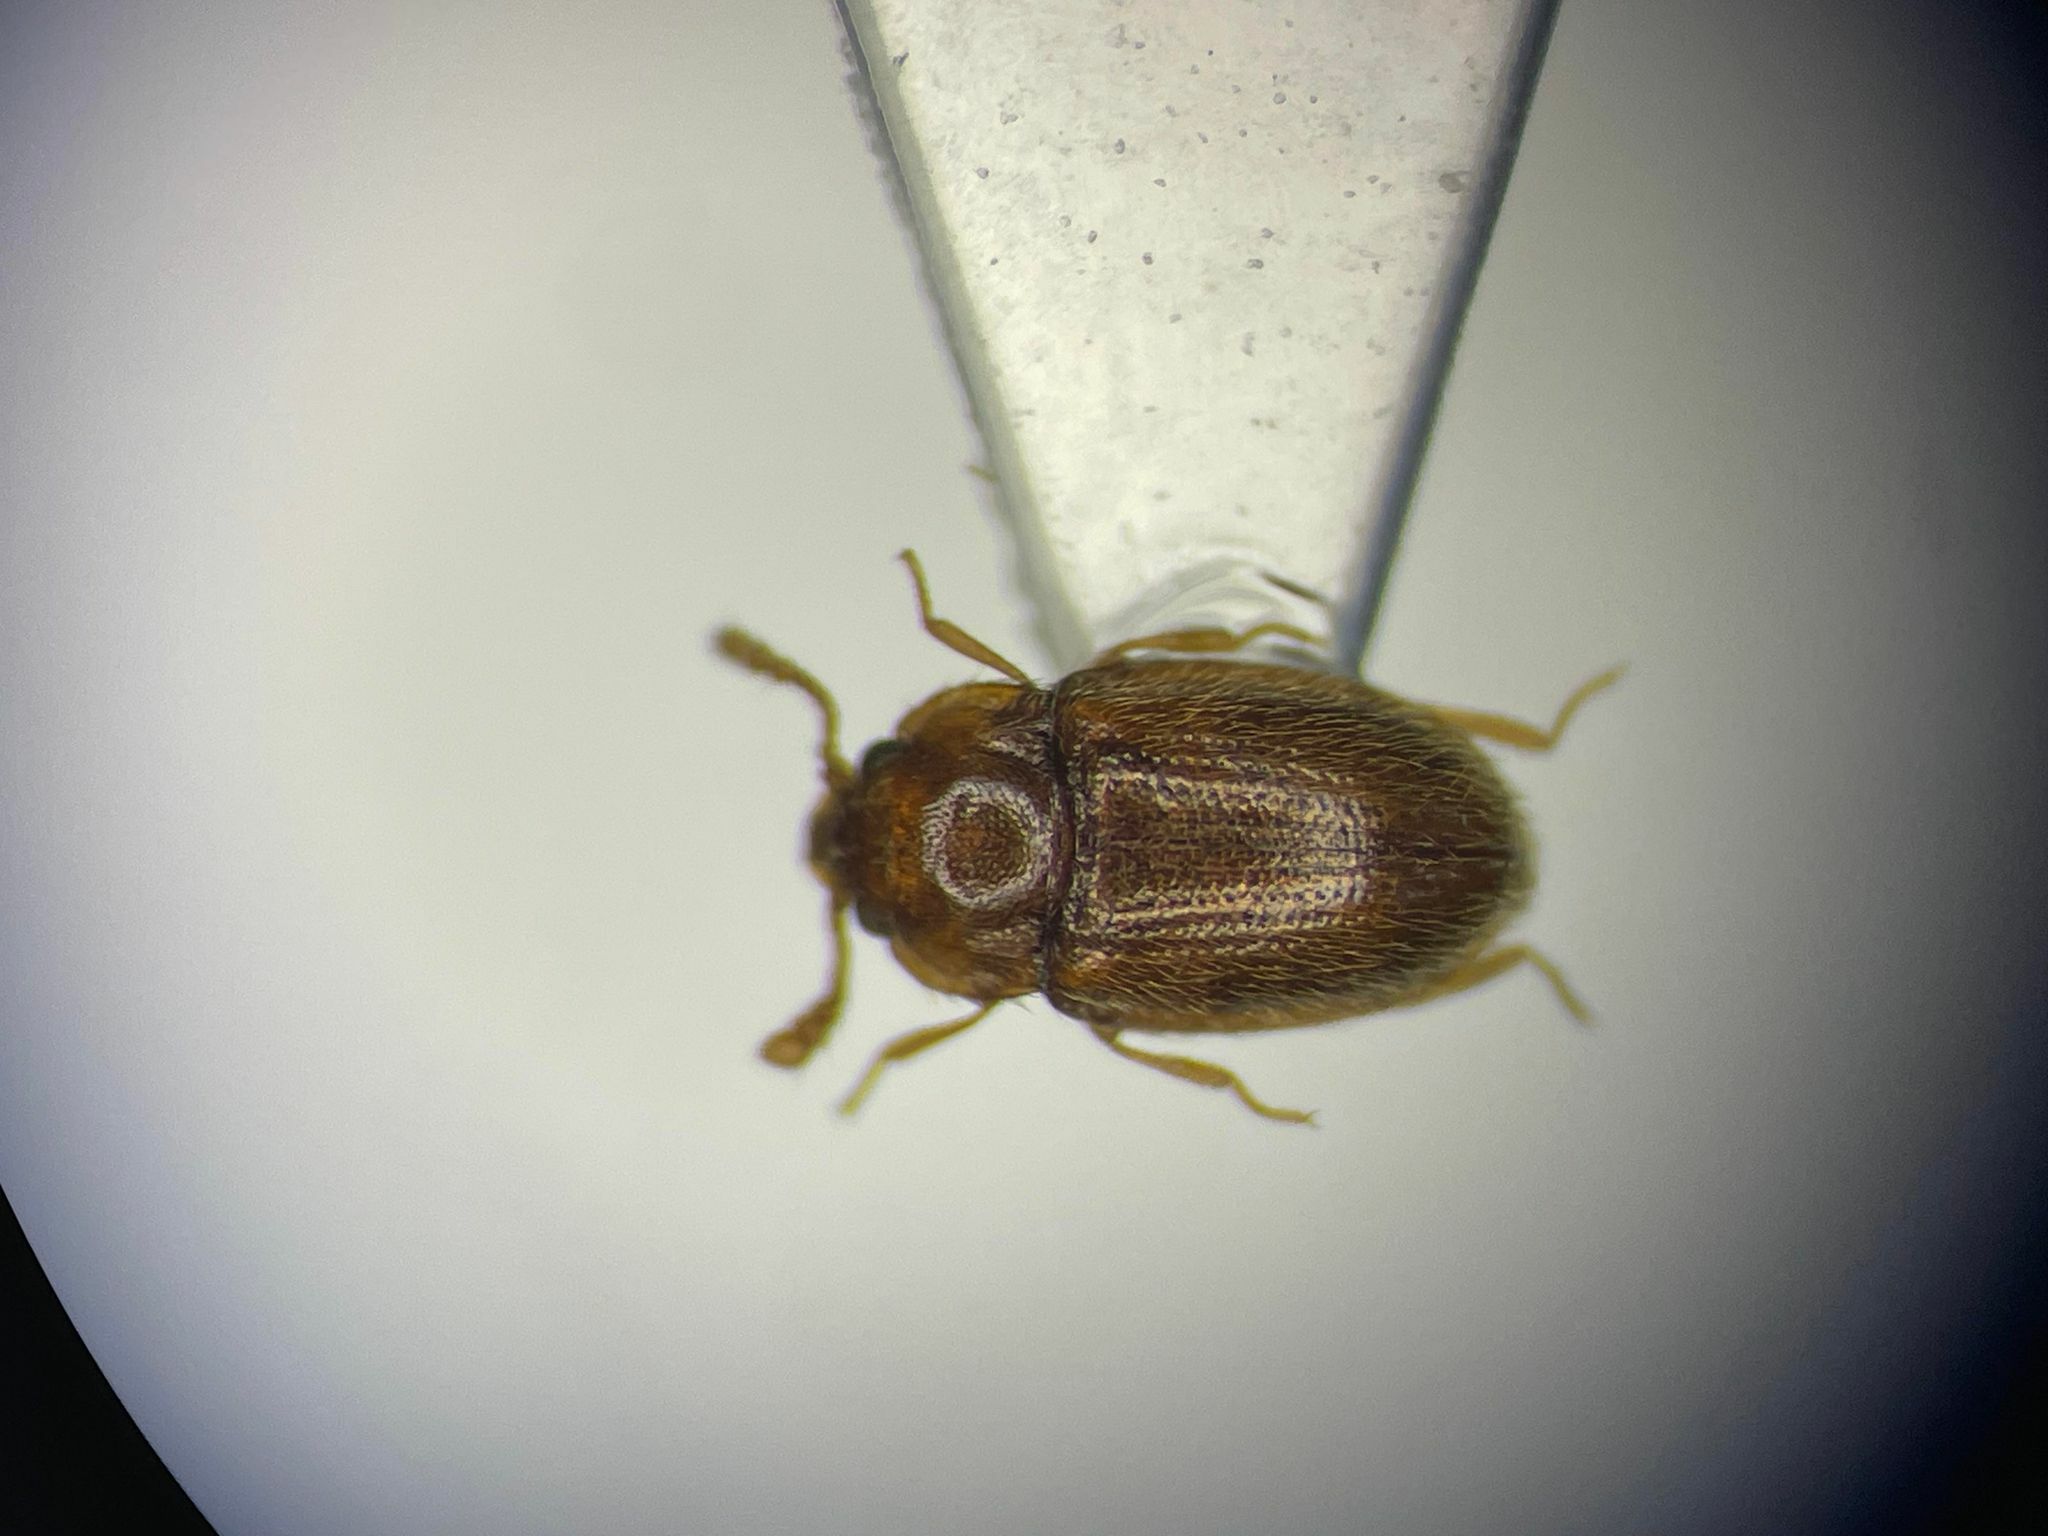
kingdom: Animalia
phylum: Arthropoda
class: Insecta
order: Coleoptera
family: Endomychidae
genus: Symbiotes
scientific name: Symbiotes duryi
